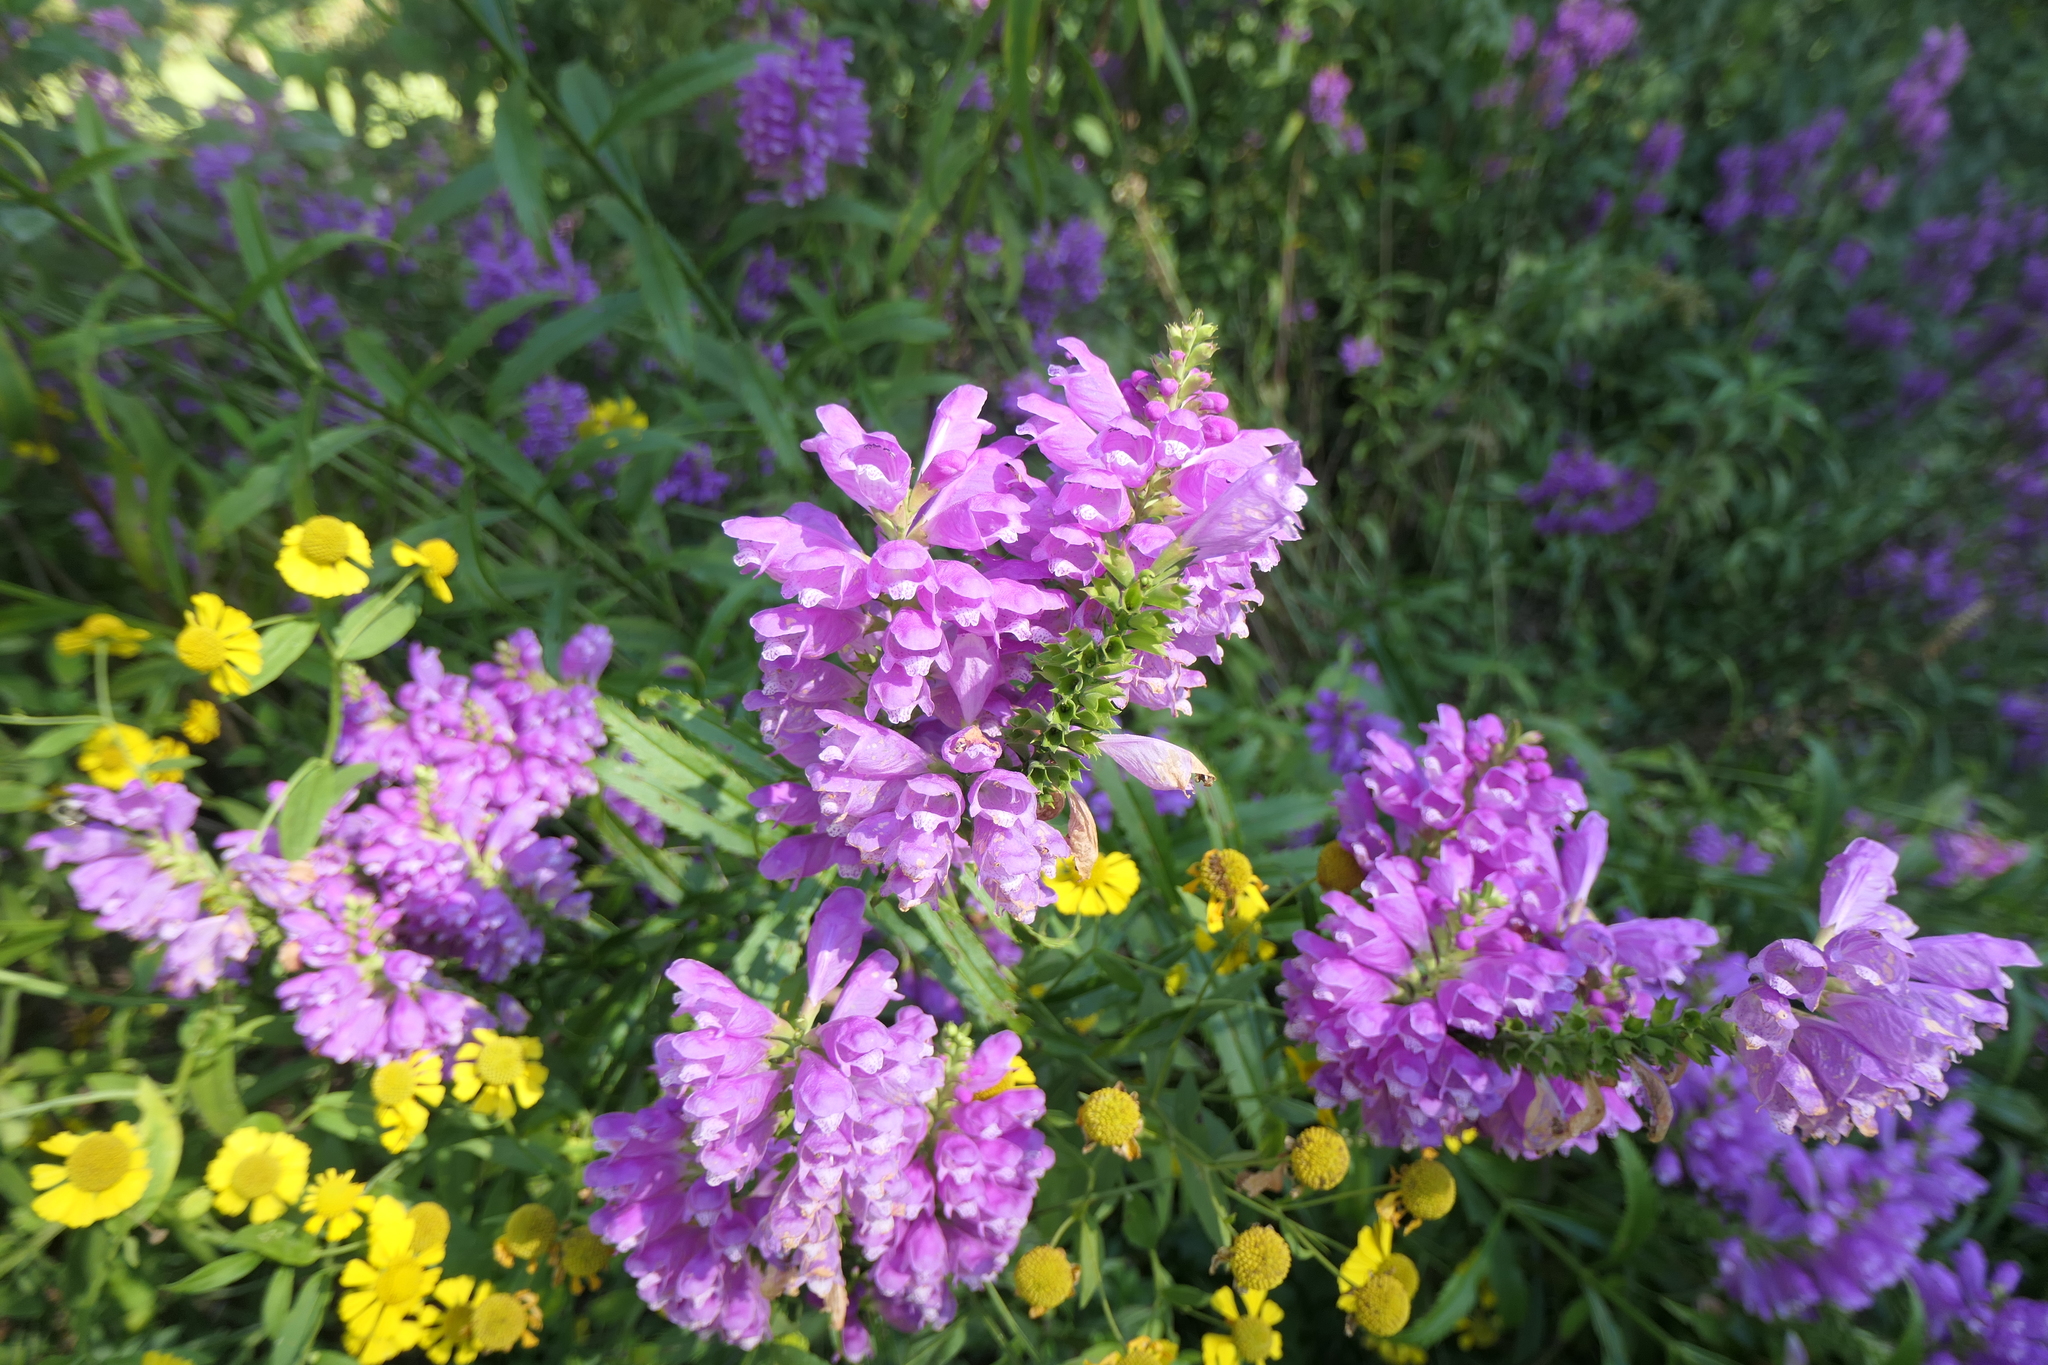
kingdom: Plantae
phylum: Tracheophyta
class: Magnoliopsida
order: Lamiales
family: Lamiaceae
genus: Physostegia
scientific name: Physostegia virginiana
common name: Obedient-plant
